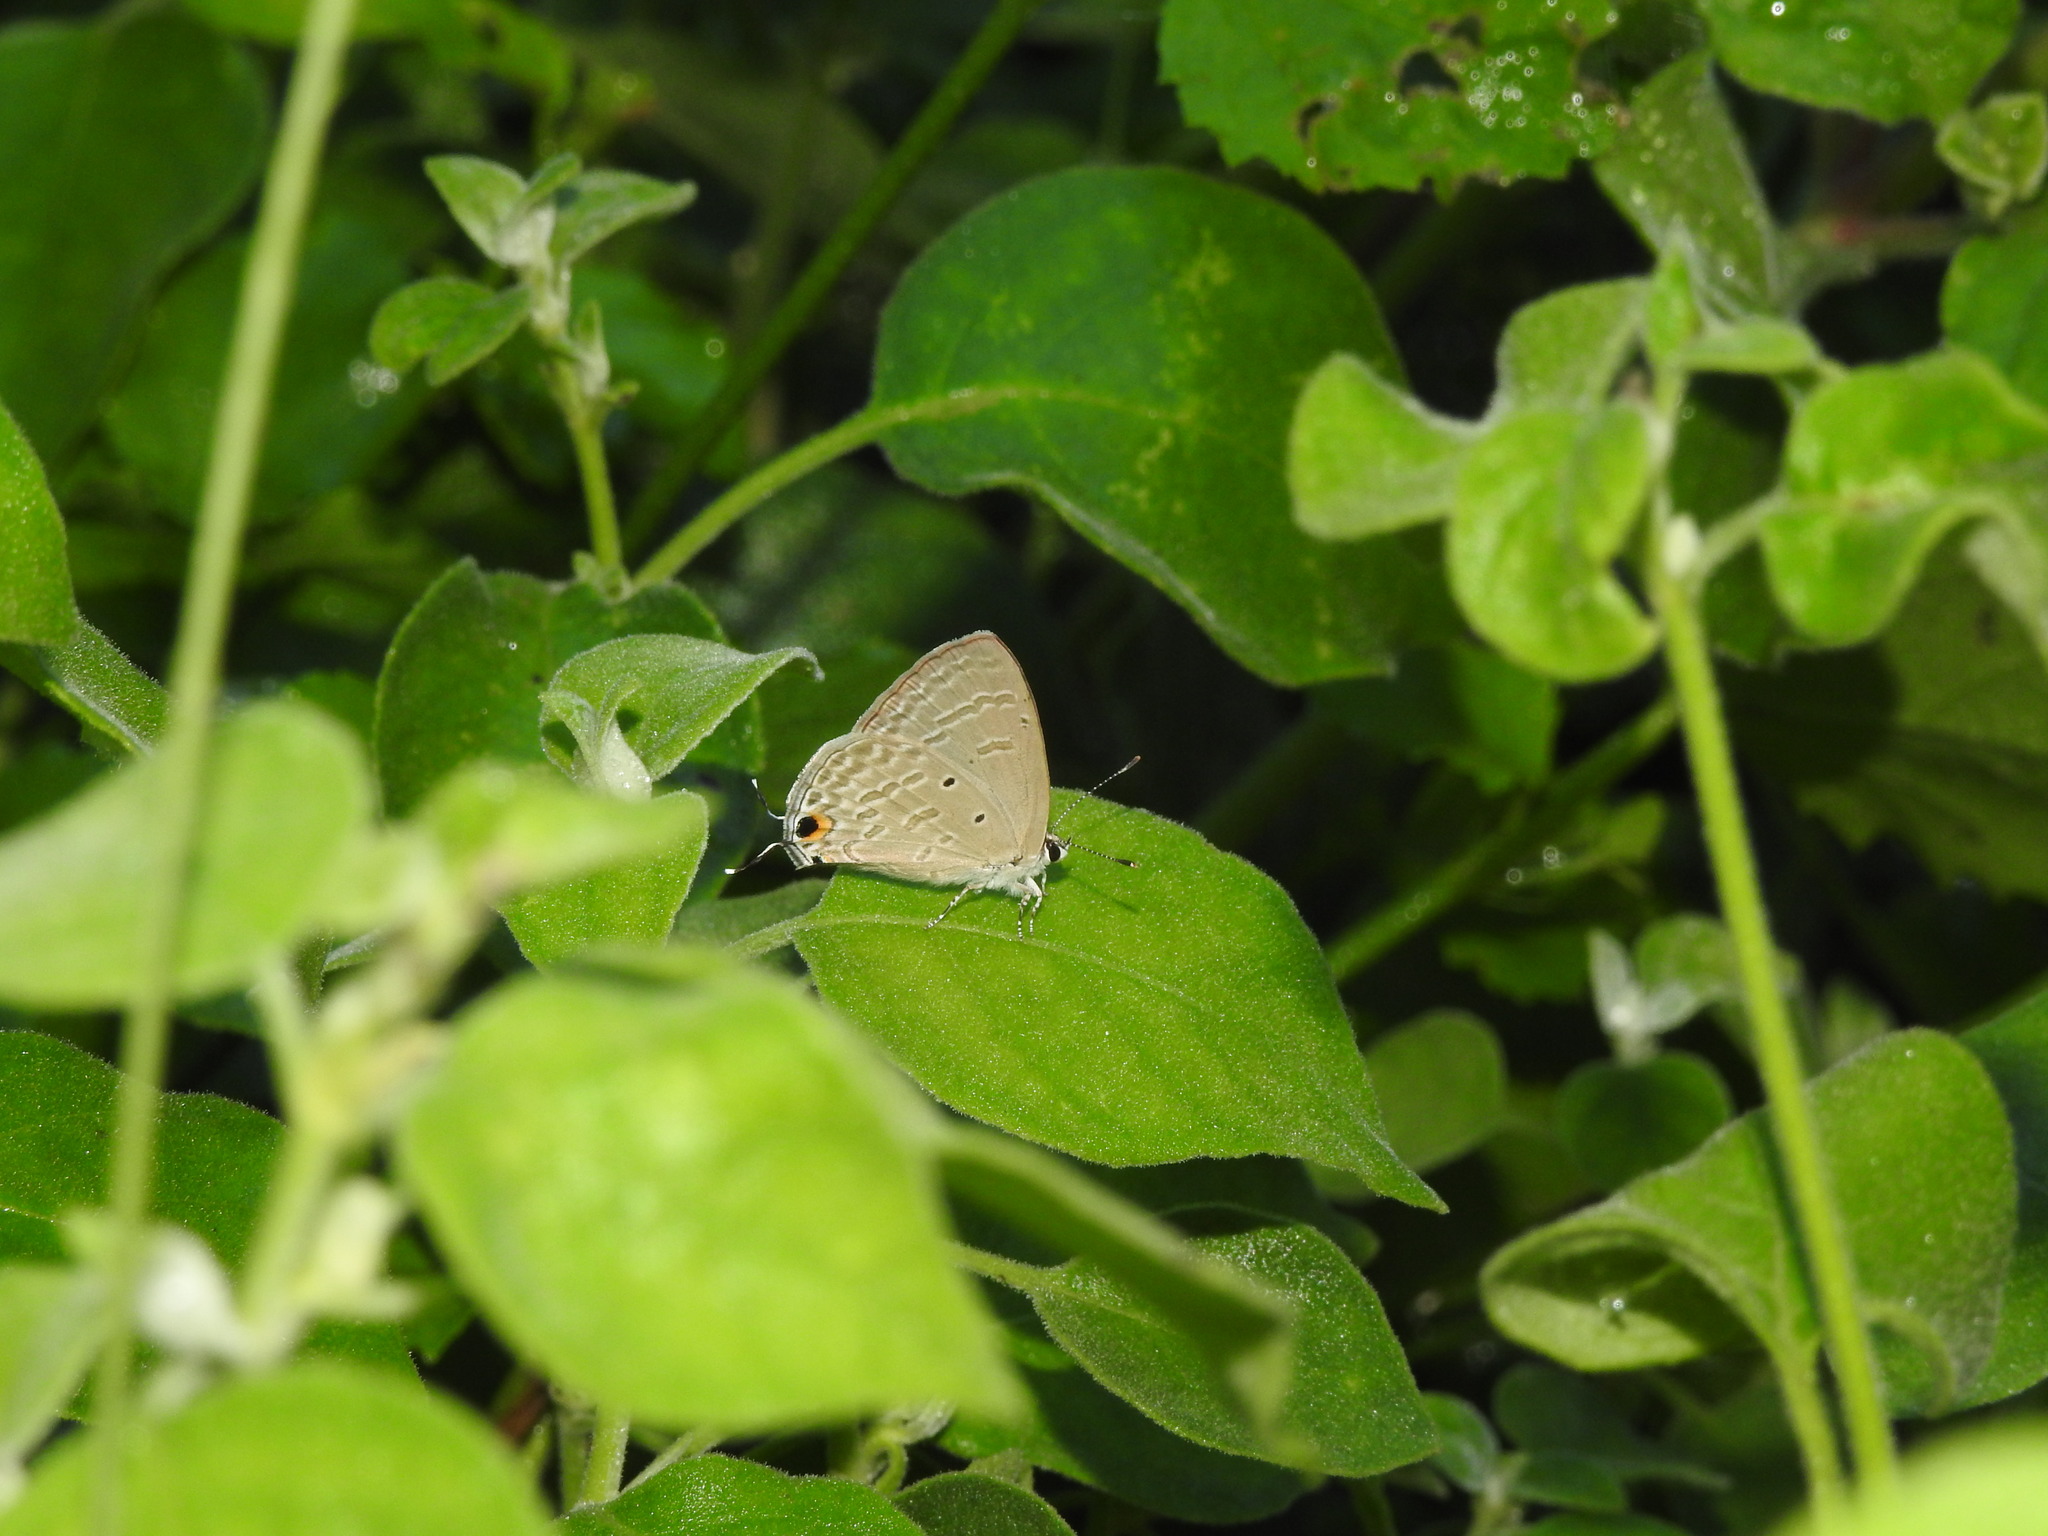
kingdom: Animalia
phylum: Arthropoda
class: Insecta
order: Lepidoptera
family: Lycaenidae
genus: Catochrysops
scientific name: Catochrysops strabo
